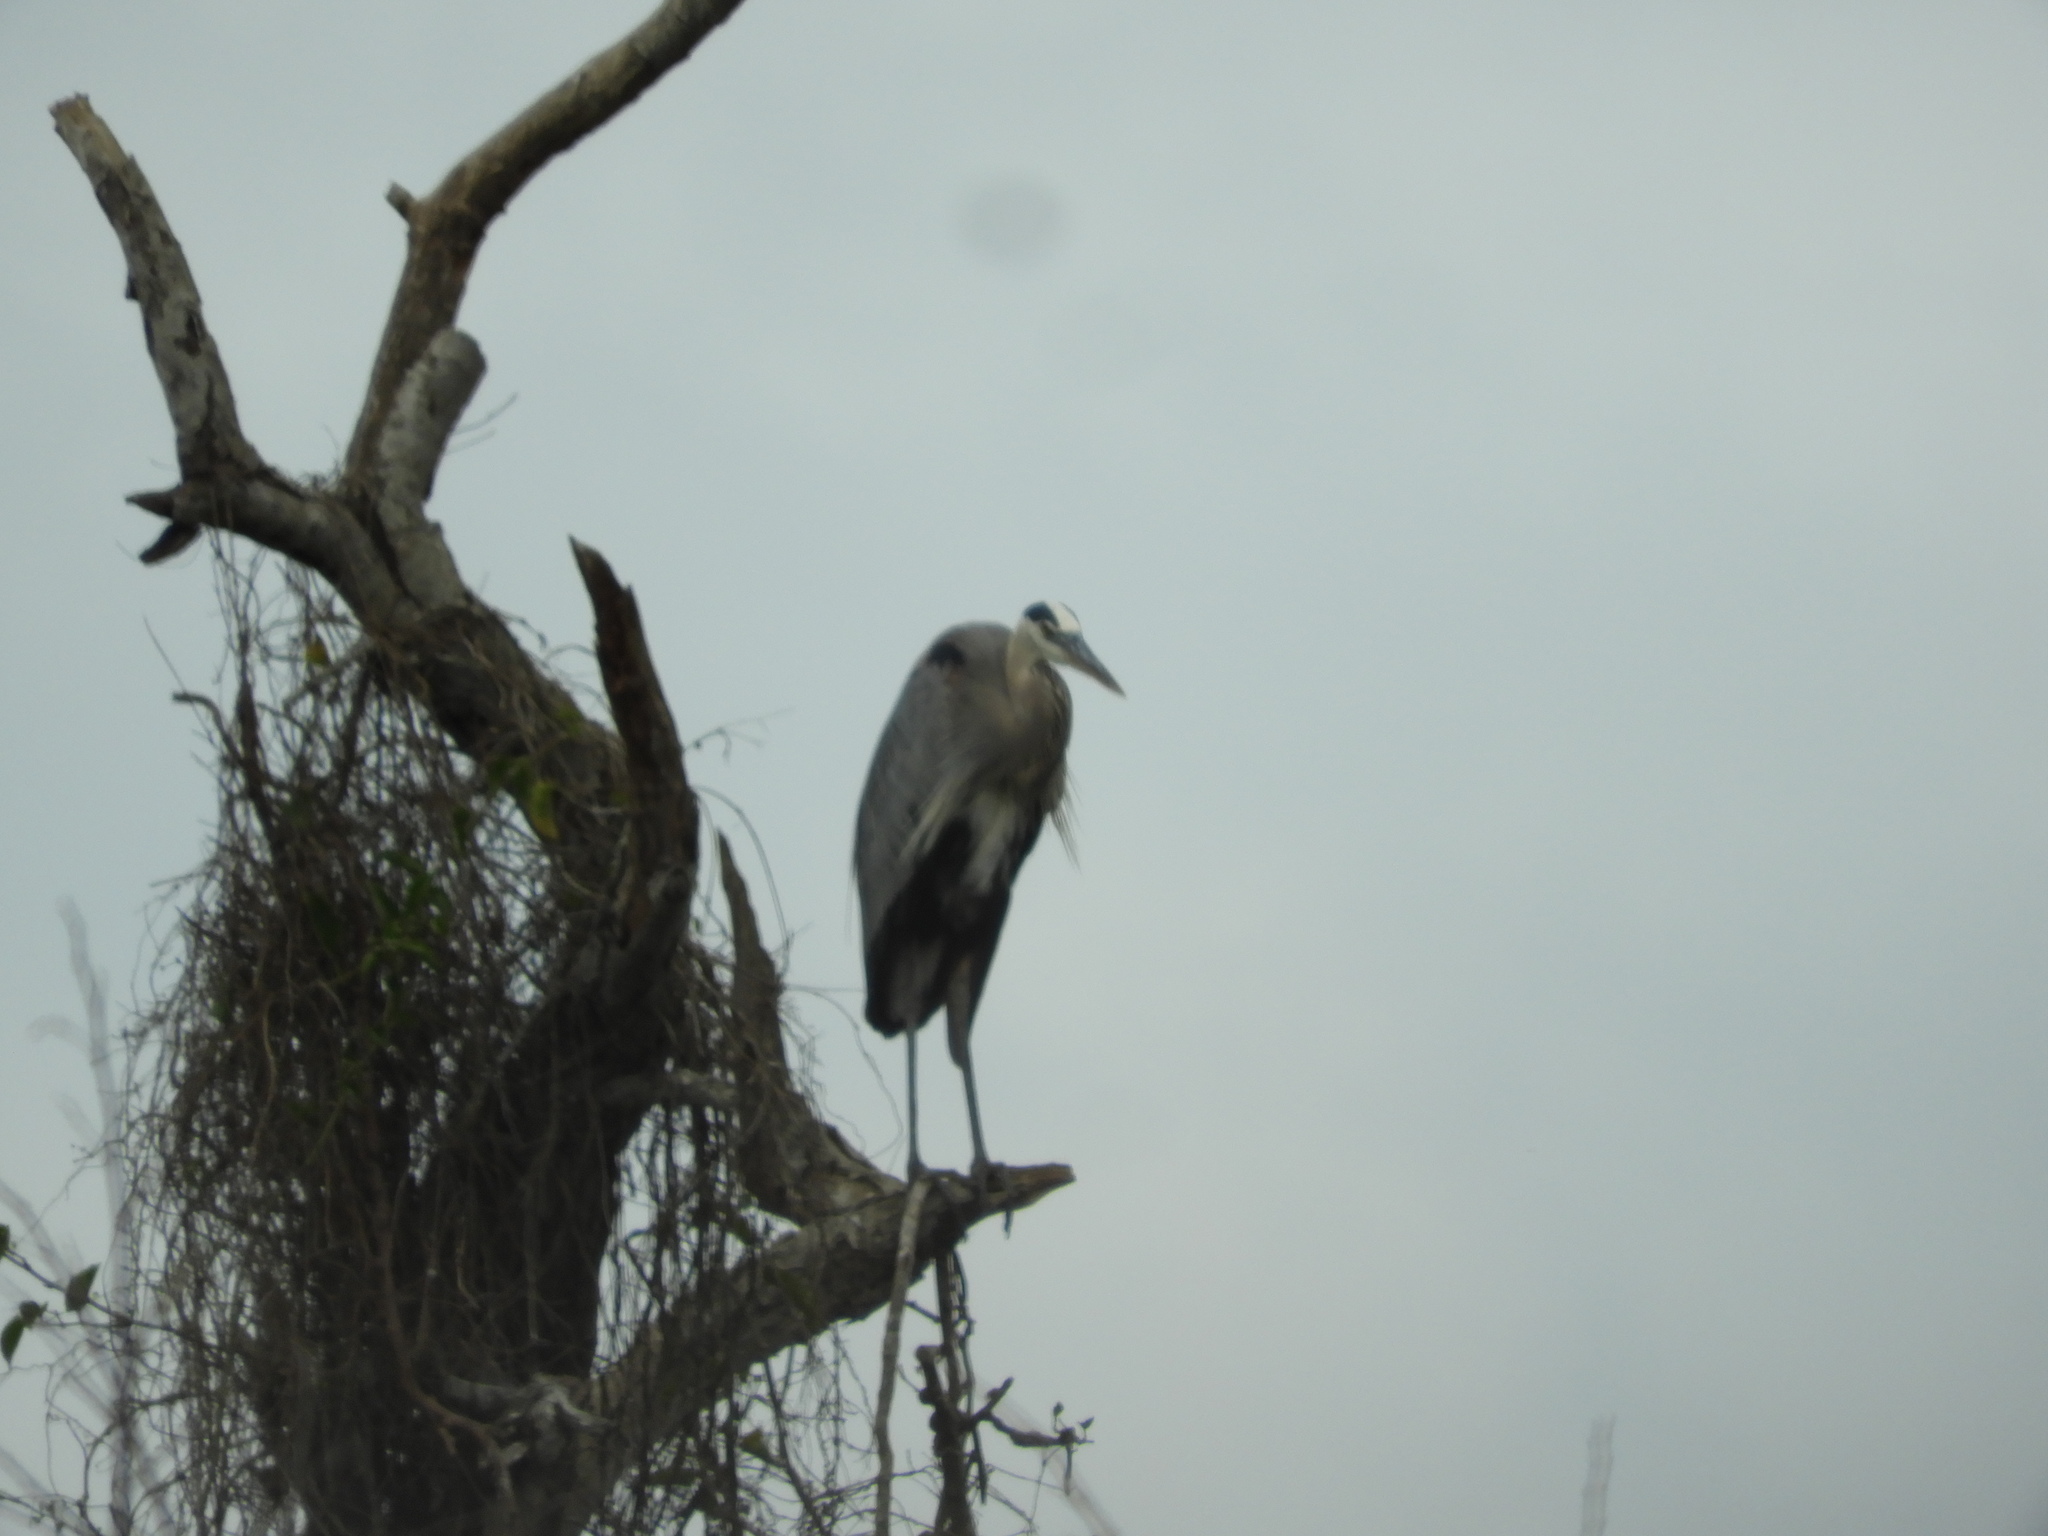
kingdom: Animalia
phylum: Chordata
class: Aves
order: Pelecaniformes
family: Ardeidae
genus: Ardea
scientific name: Ardea herodias
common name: Great blue heron
